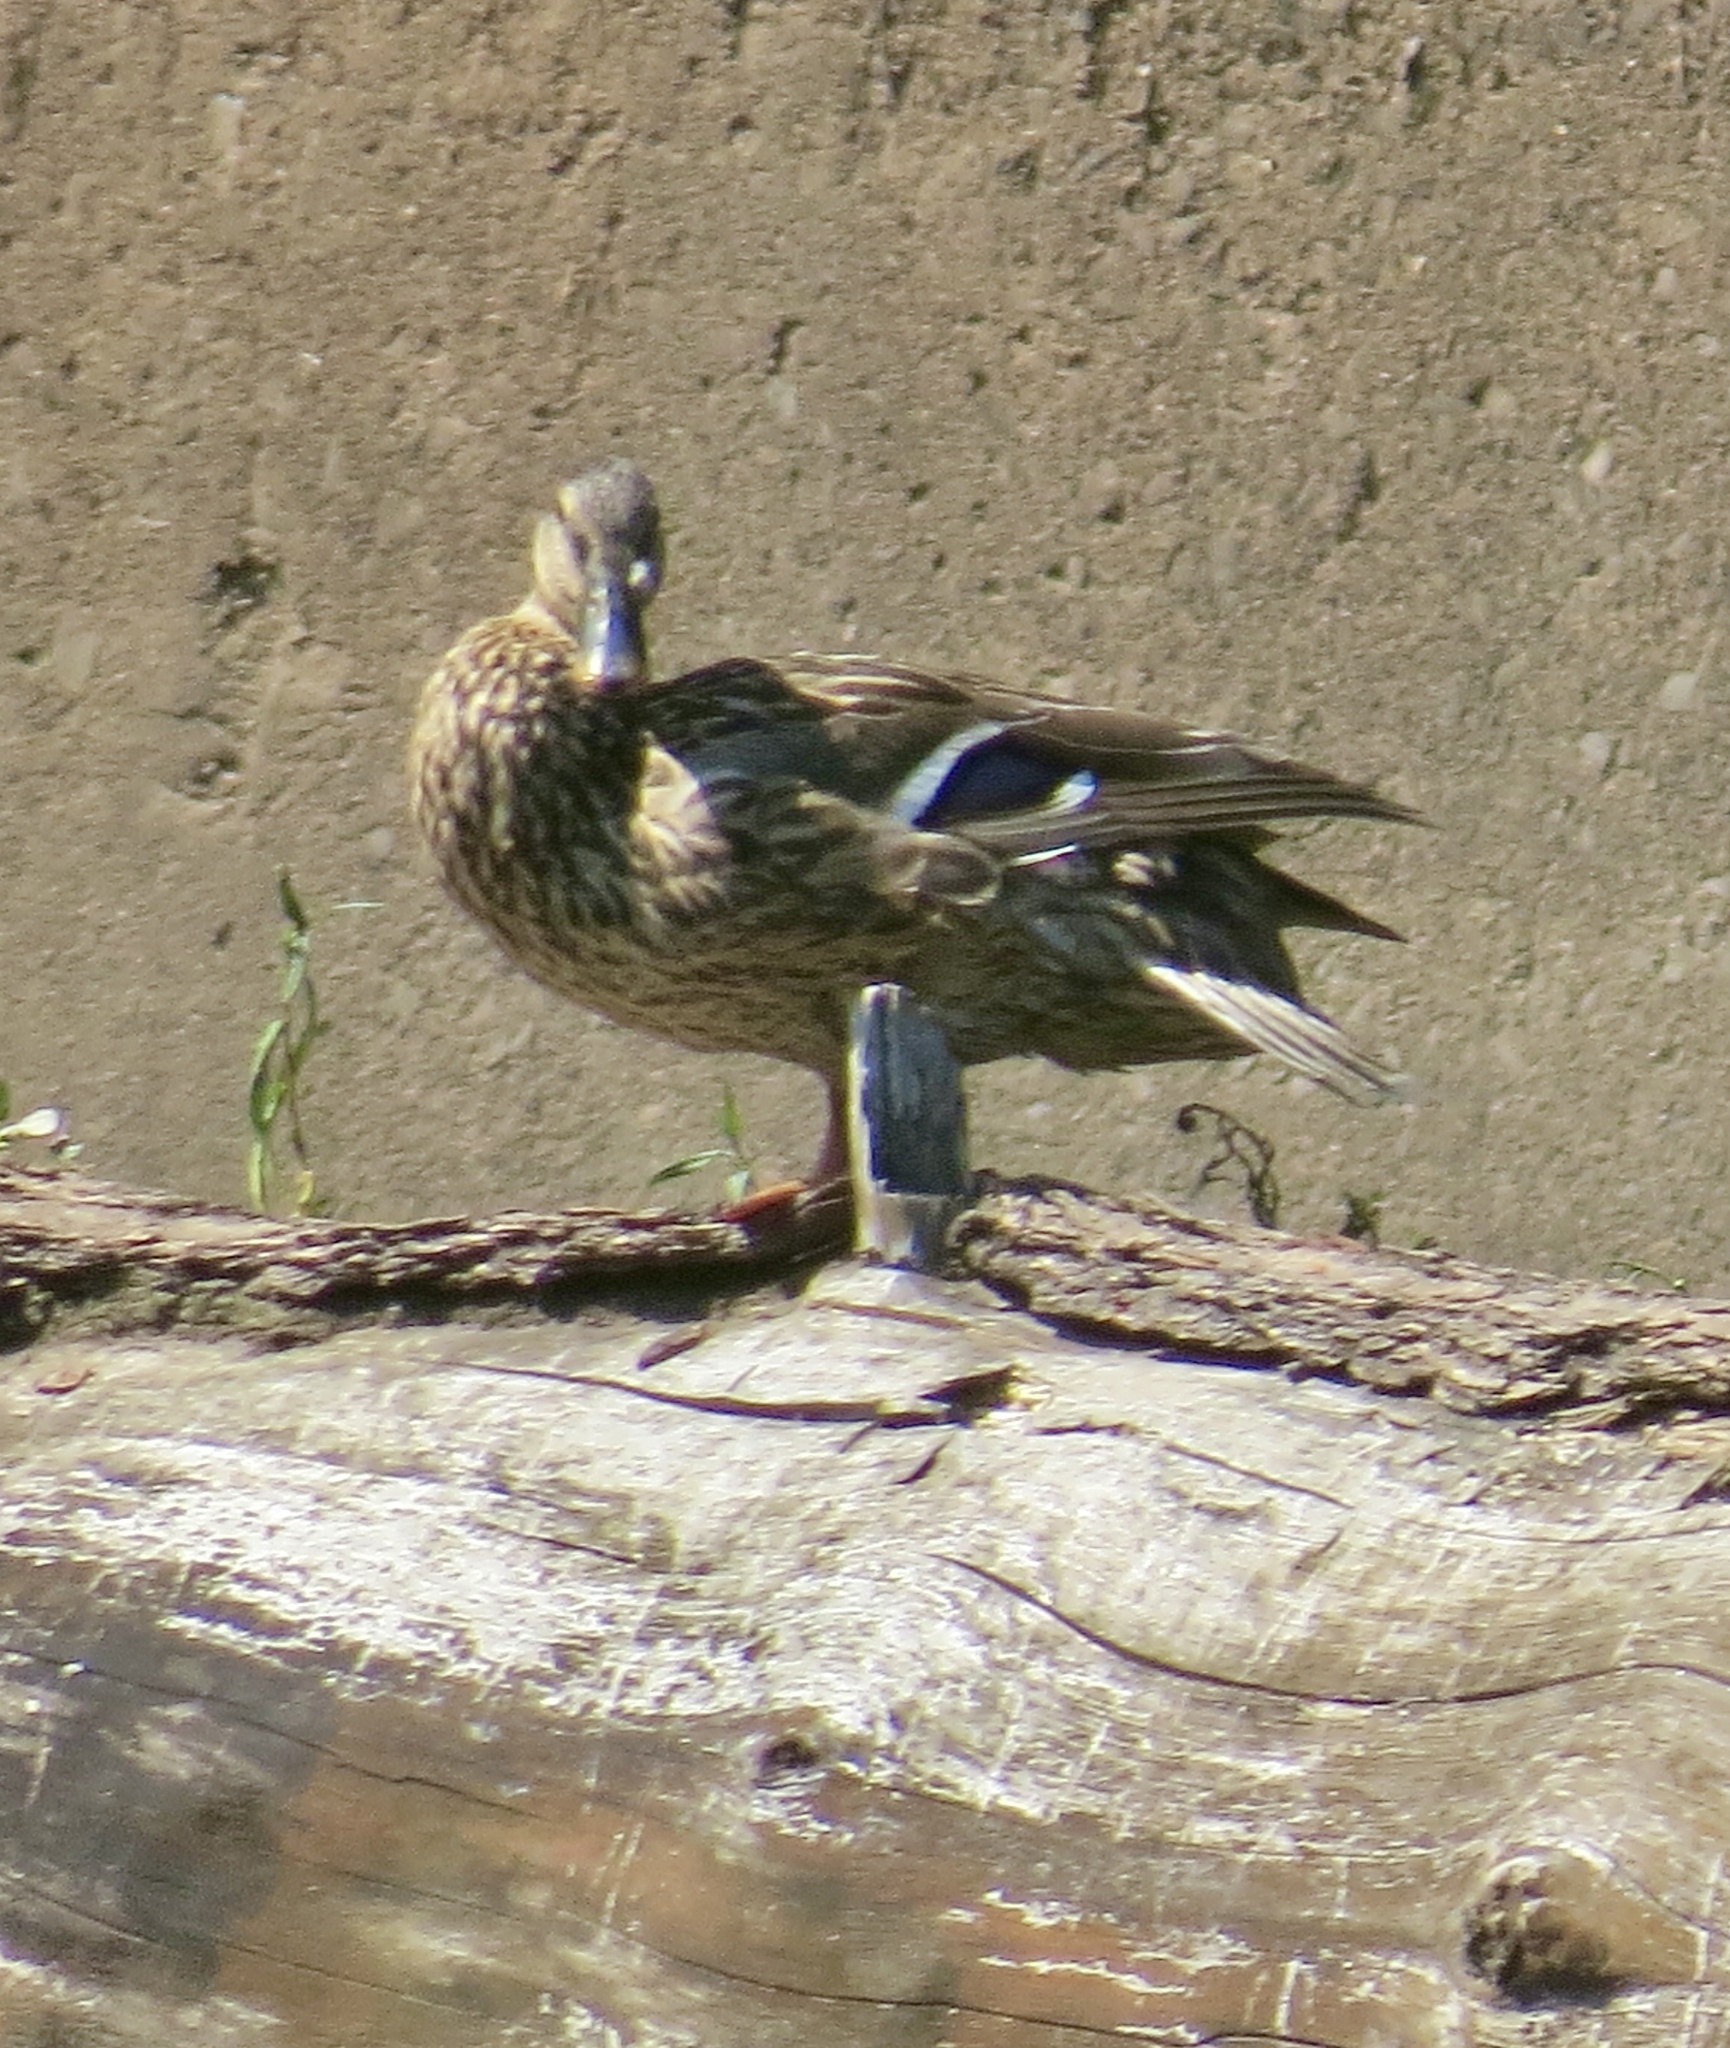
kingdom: Animalia
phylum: Chordata
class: Aves
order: Anseriformes
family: Anatidae
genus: Anas
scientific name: Anas platyrhynchos
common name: Mallard
